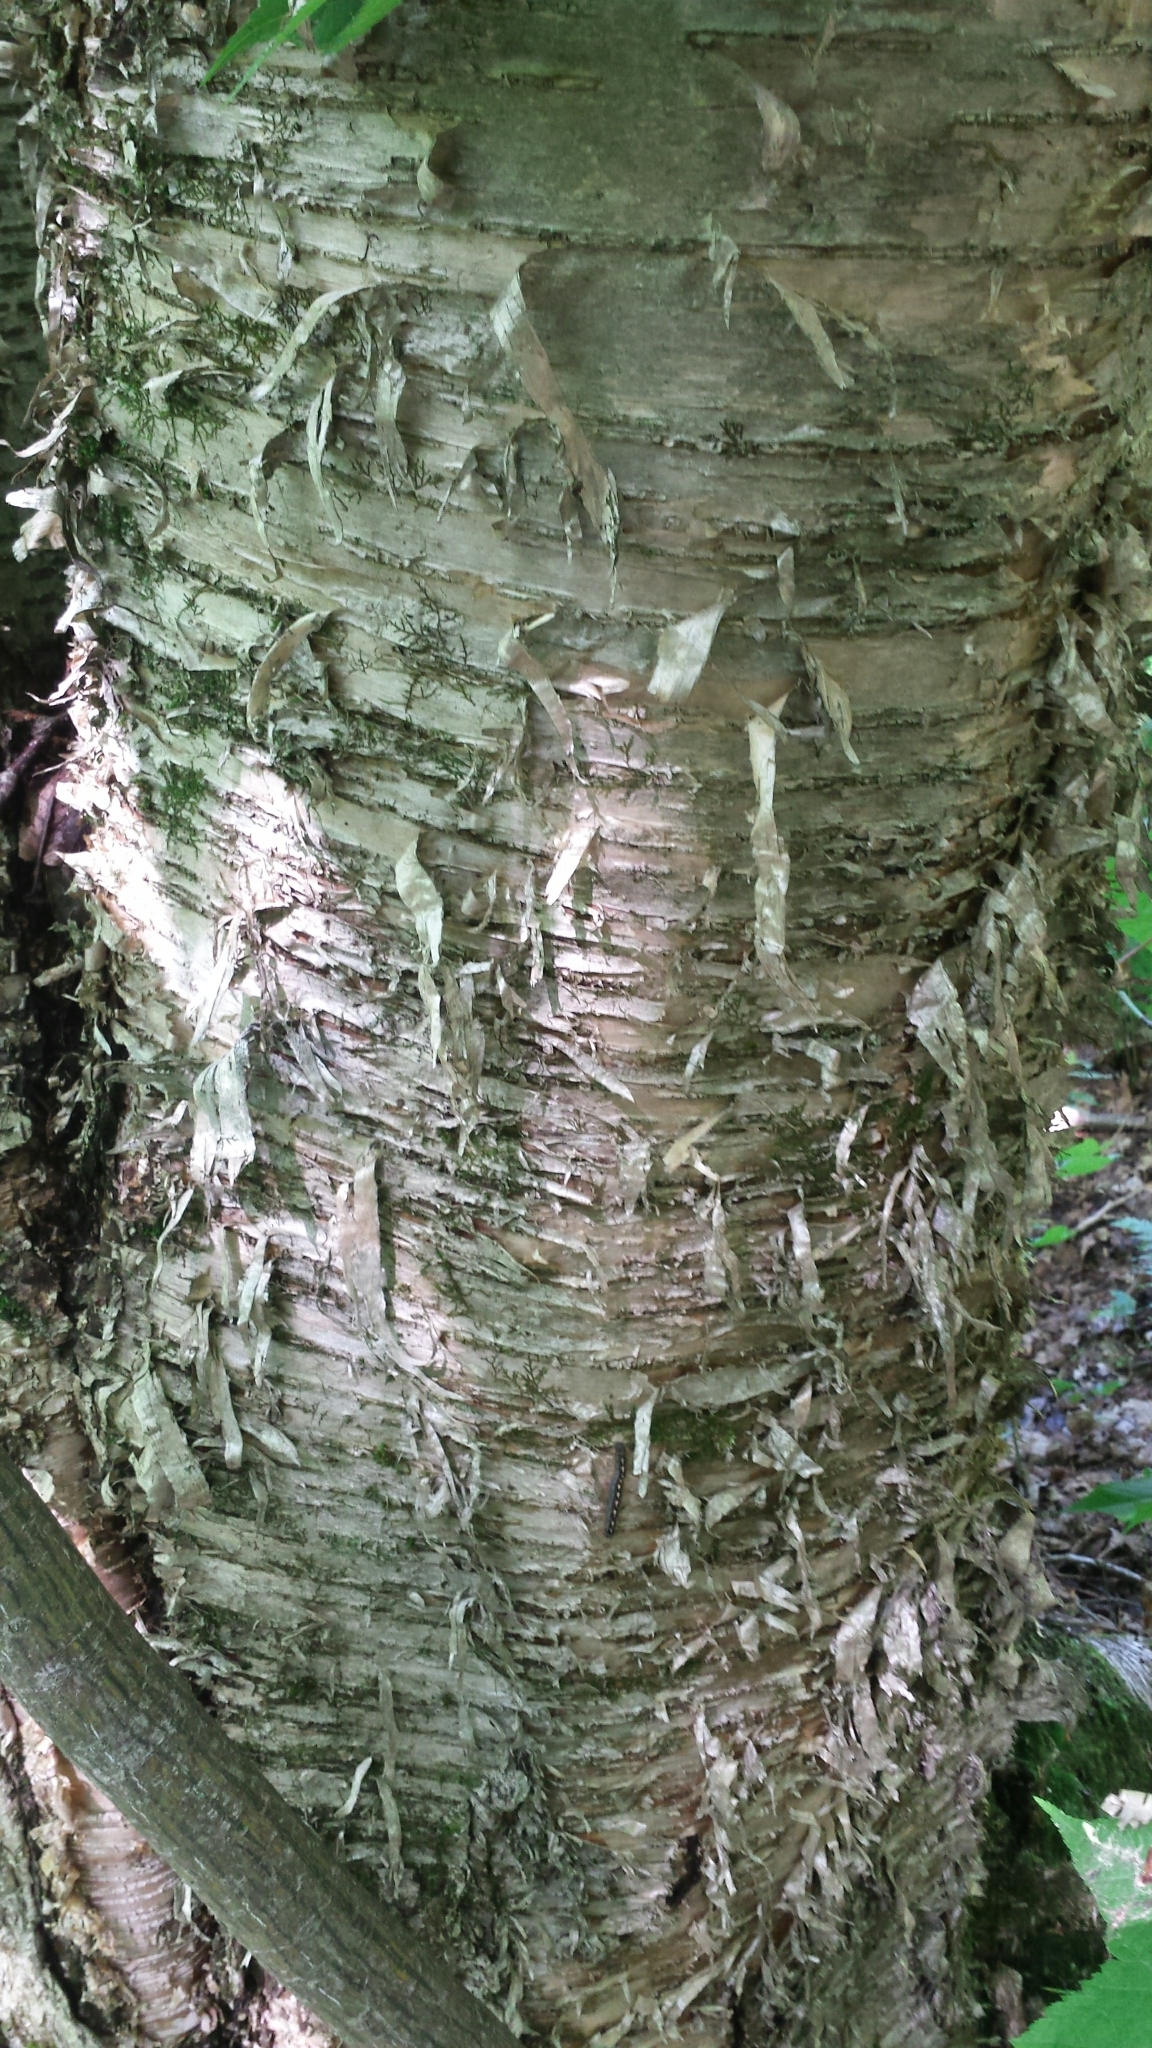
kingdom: Plantae
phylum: Tracheophyta
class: Magnoliopsida
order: Fagales
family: Betulaceae
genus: Betula
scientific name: Betula alleghaniensis
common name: Yellow birch
